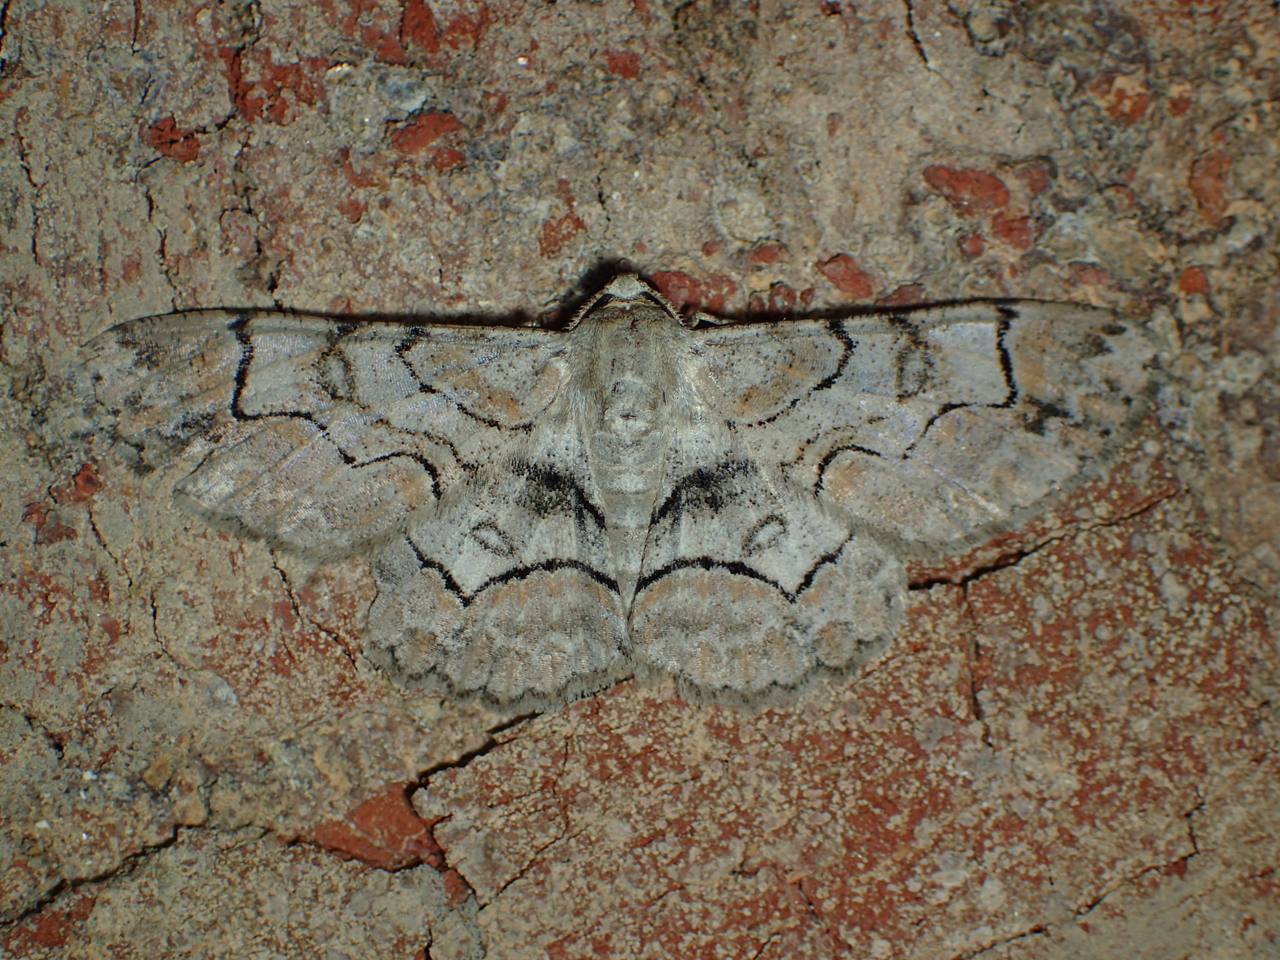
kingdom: Animalia
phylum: Arthropoda
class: Insecta
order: Lepidoptera
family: Geometridae
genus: Iridopsis
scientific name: Iridopsis larvaria
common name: Bent-line gray
